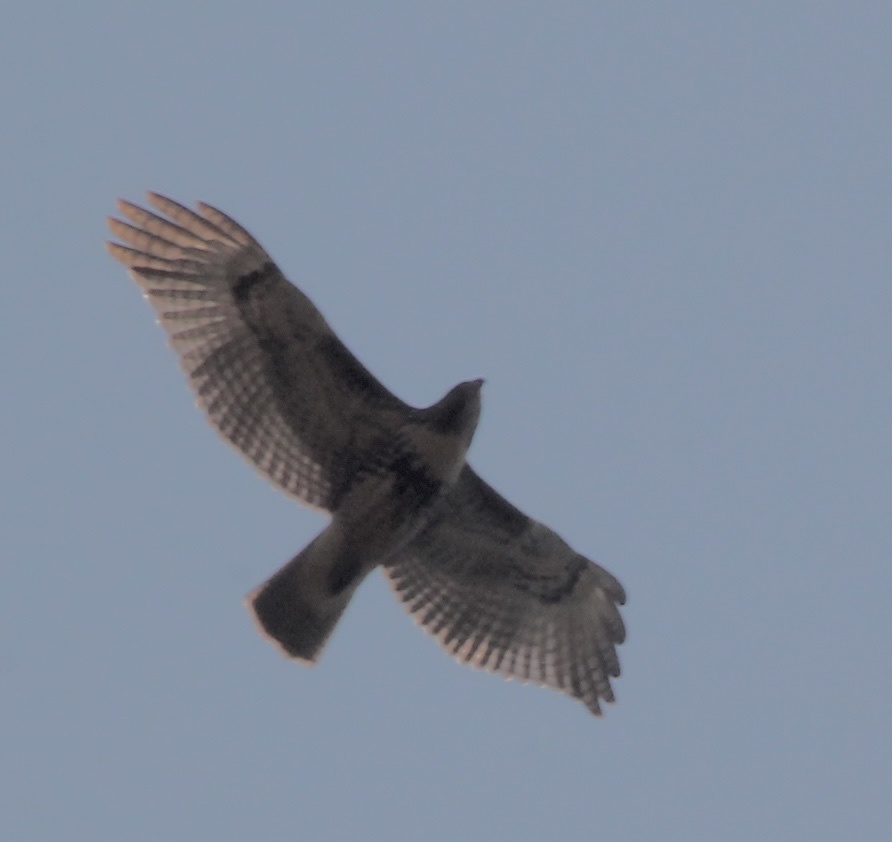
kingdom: Animalia
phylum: Chordata
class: Aves
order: Accipitriformes
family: Accipitridae
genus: Buteo
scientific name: Buteo jamaicensis
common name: Red-tailed hawk
